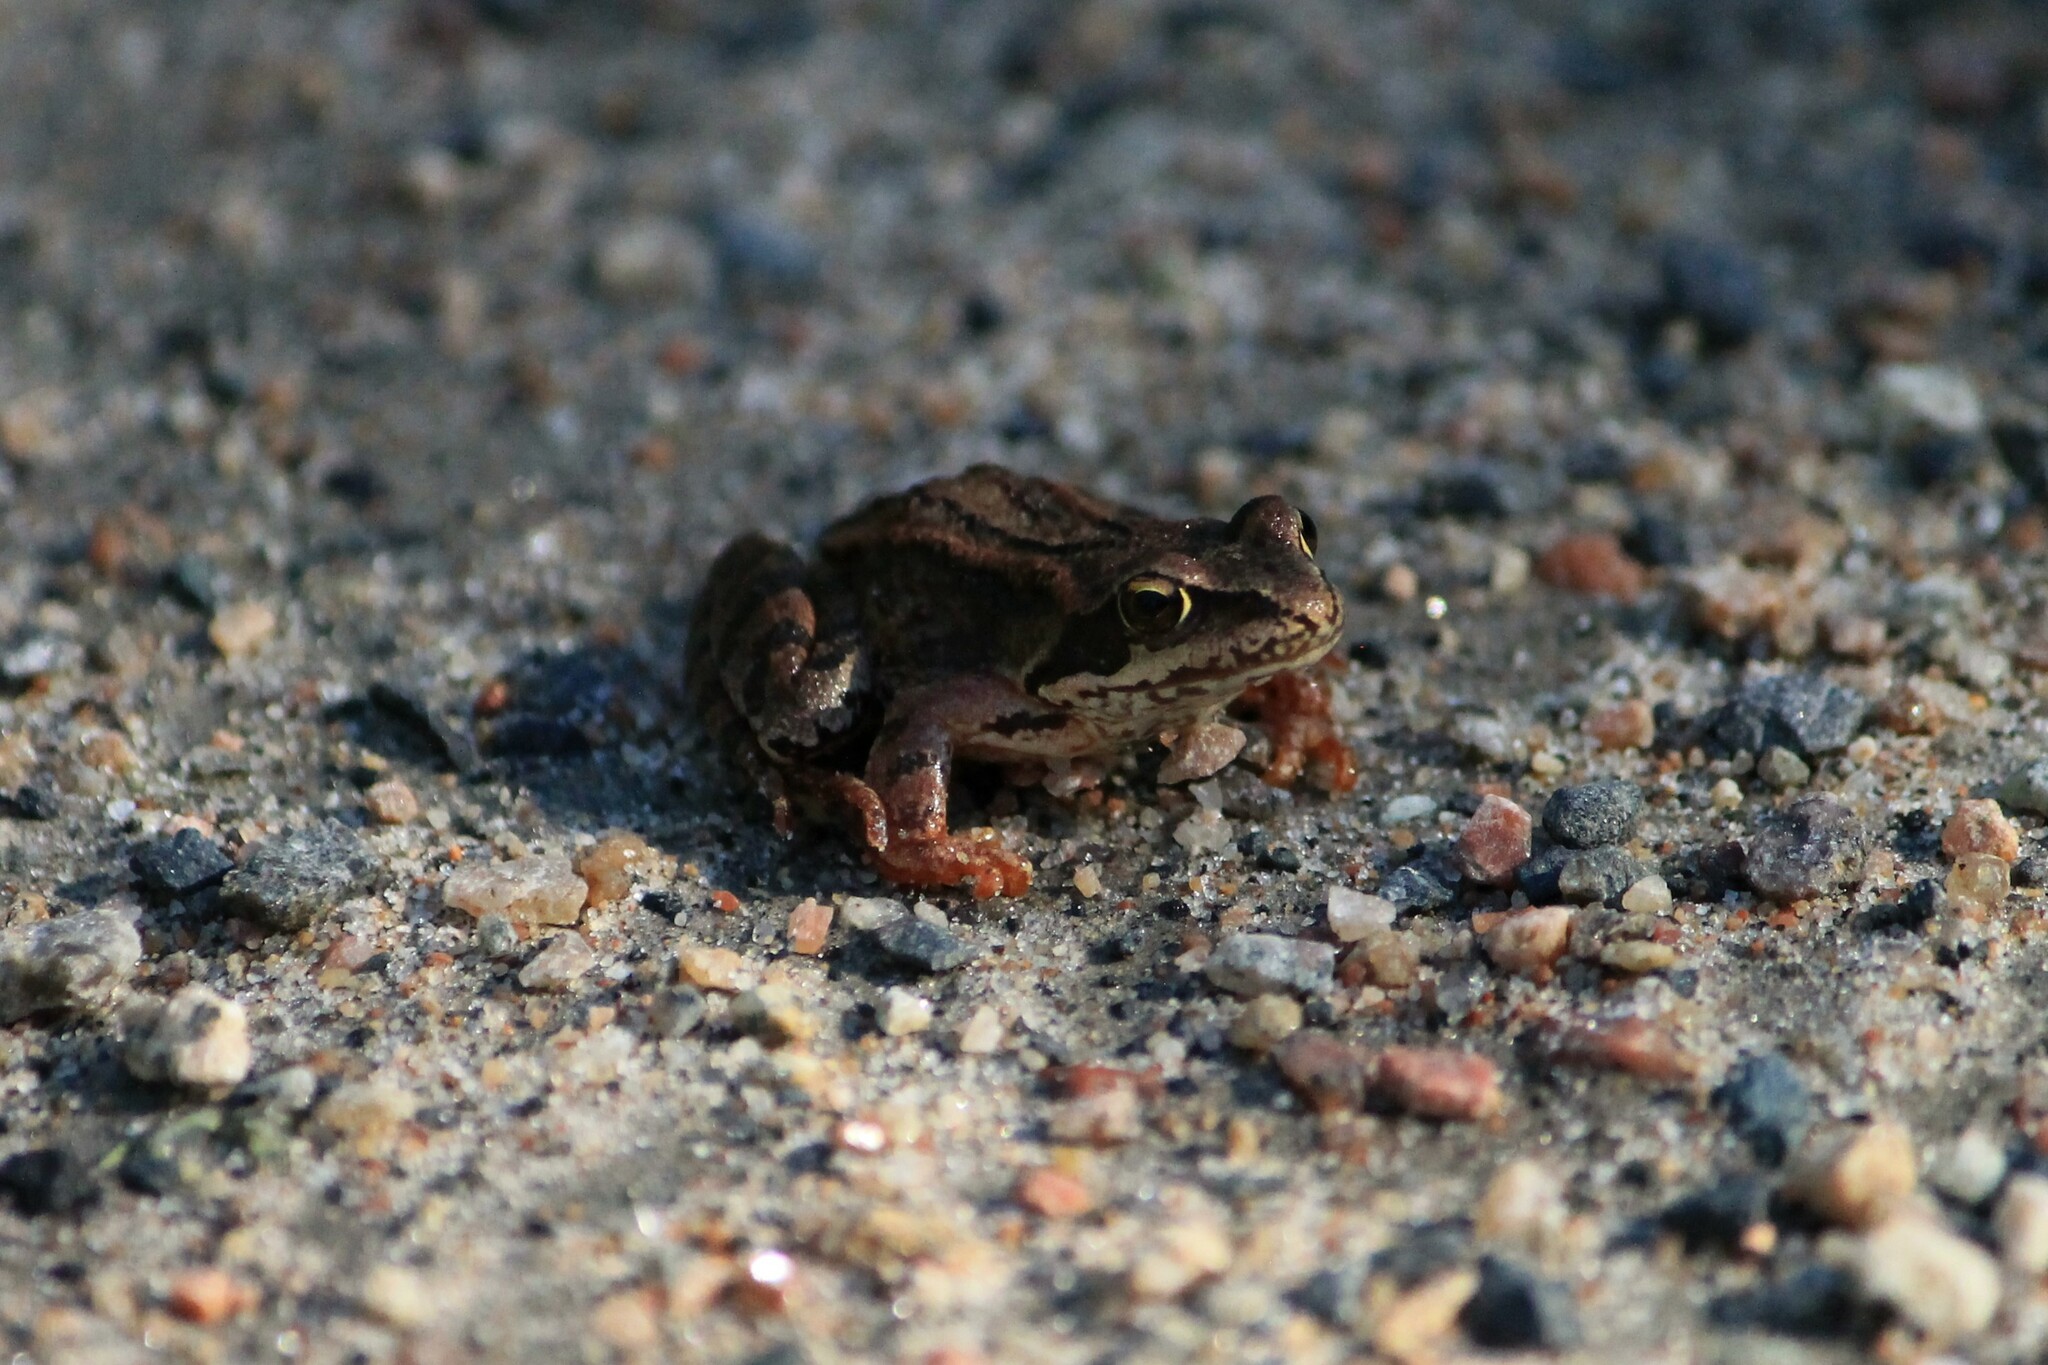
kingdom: Animalia
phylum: Chordata
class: Amphibia
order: Anura
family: Ranidae
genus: Rana
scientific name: Rana temporaria
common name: Common frog
